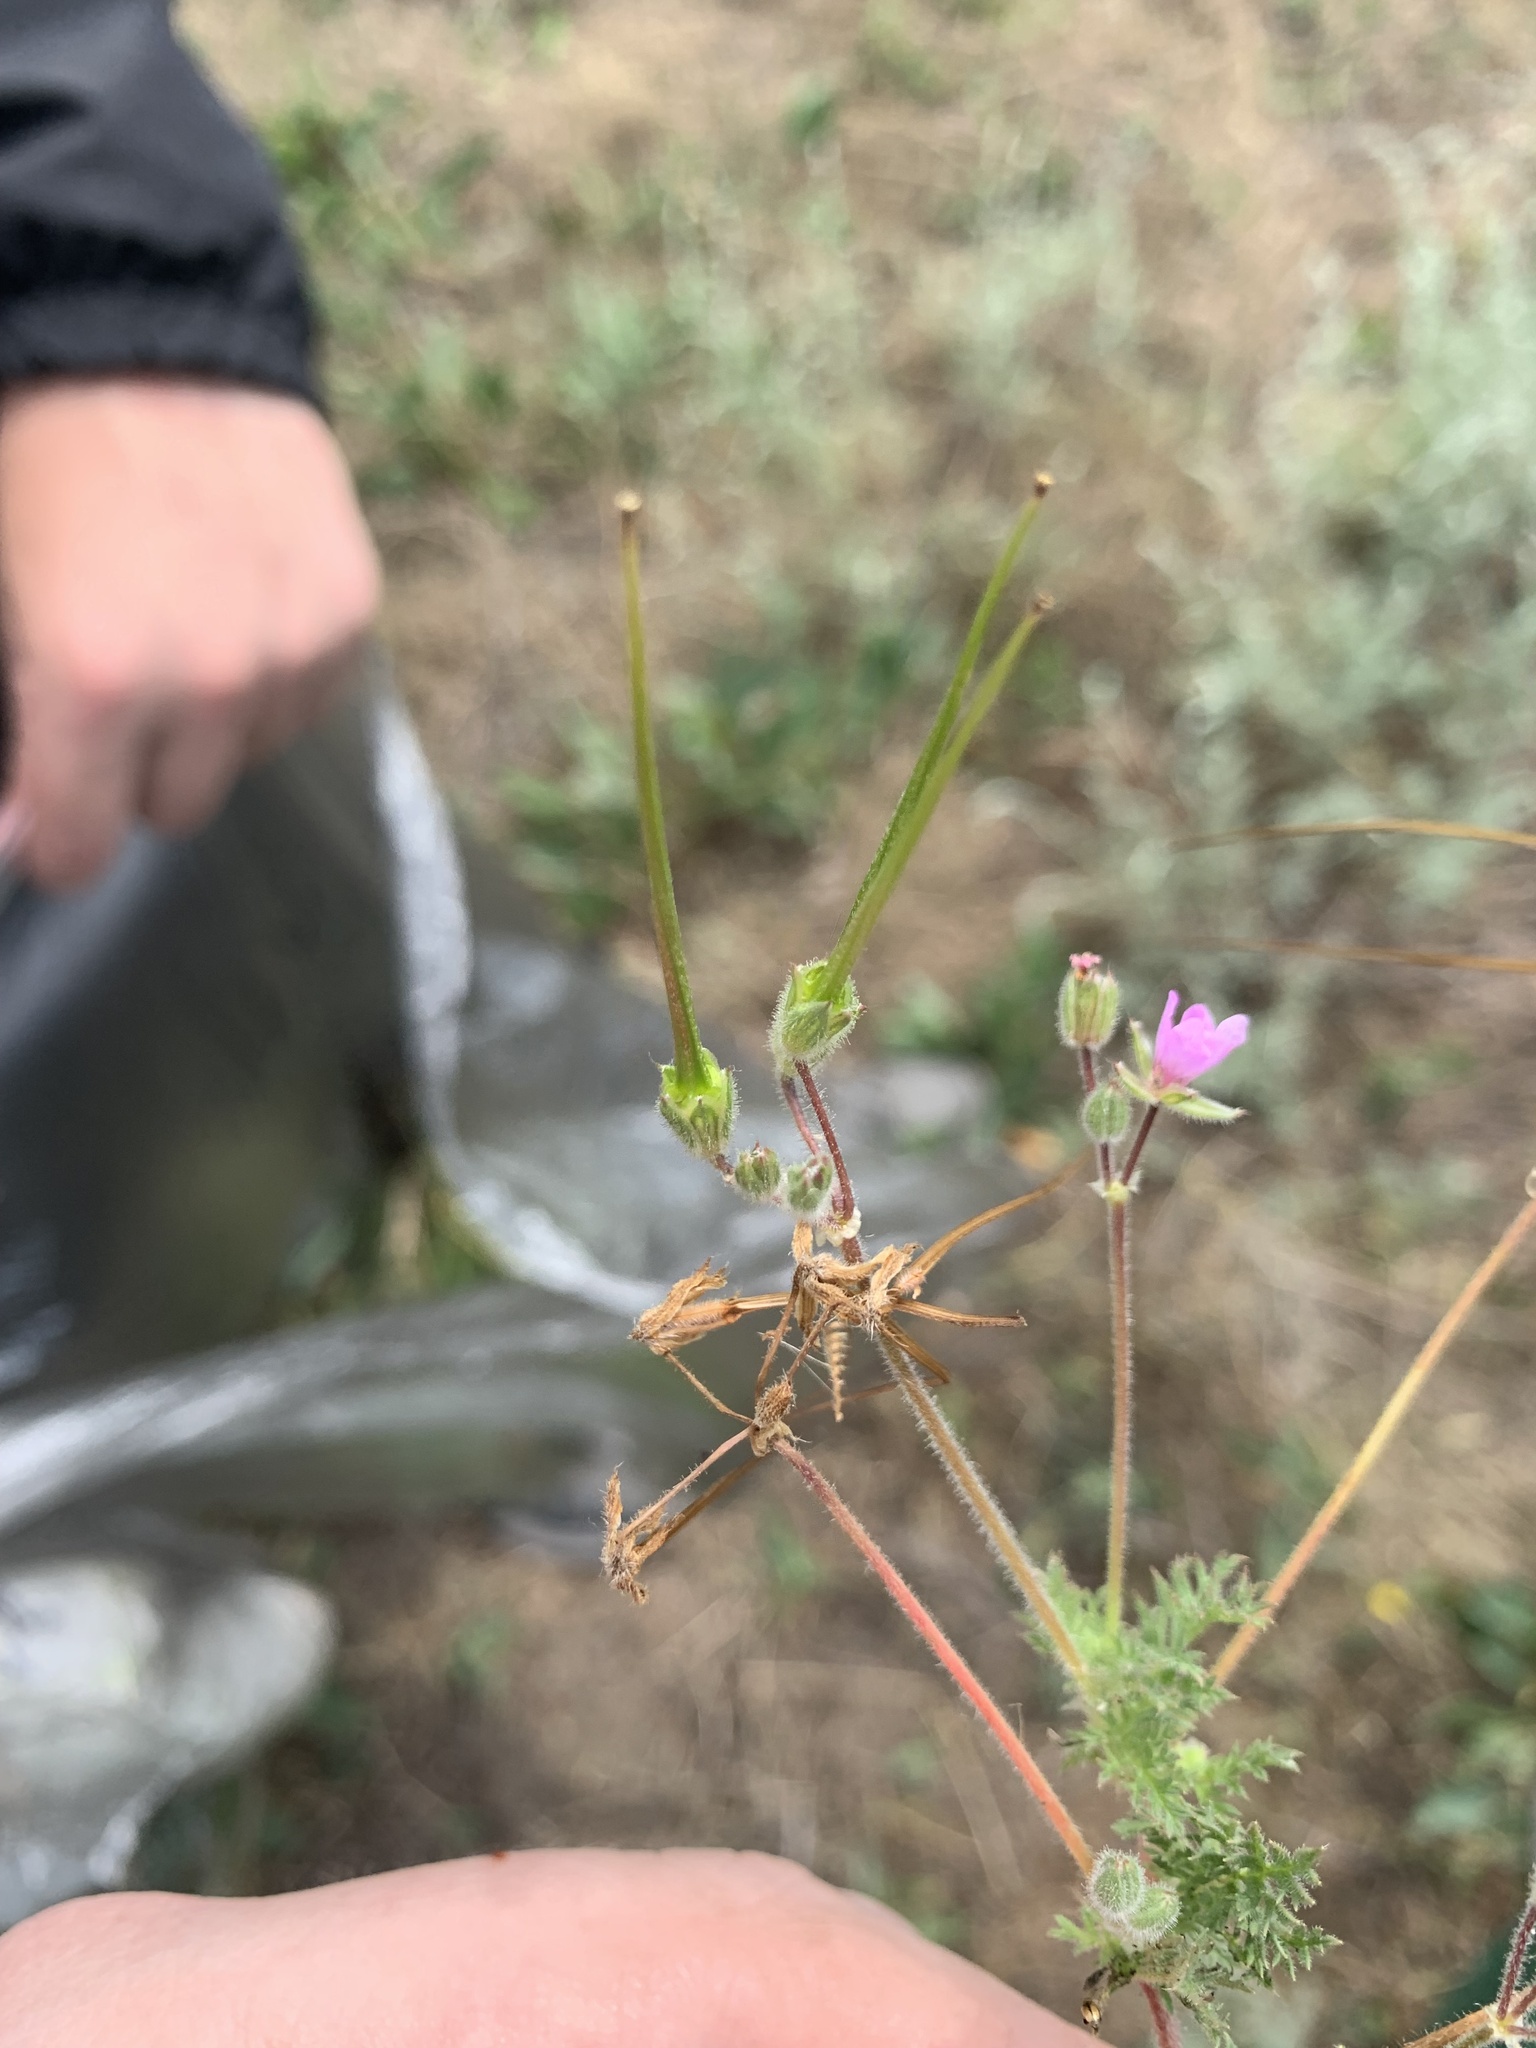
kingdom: Plantae
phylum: Tracheophyta
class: Magnoliopsida
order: Geraniales
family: Geraniaceae
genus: Erodium
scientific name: Erodium cicutarium
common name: Common stork's-bill
